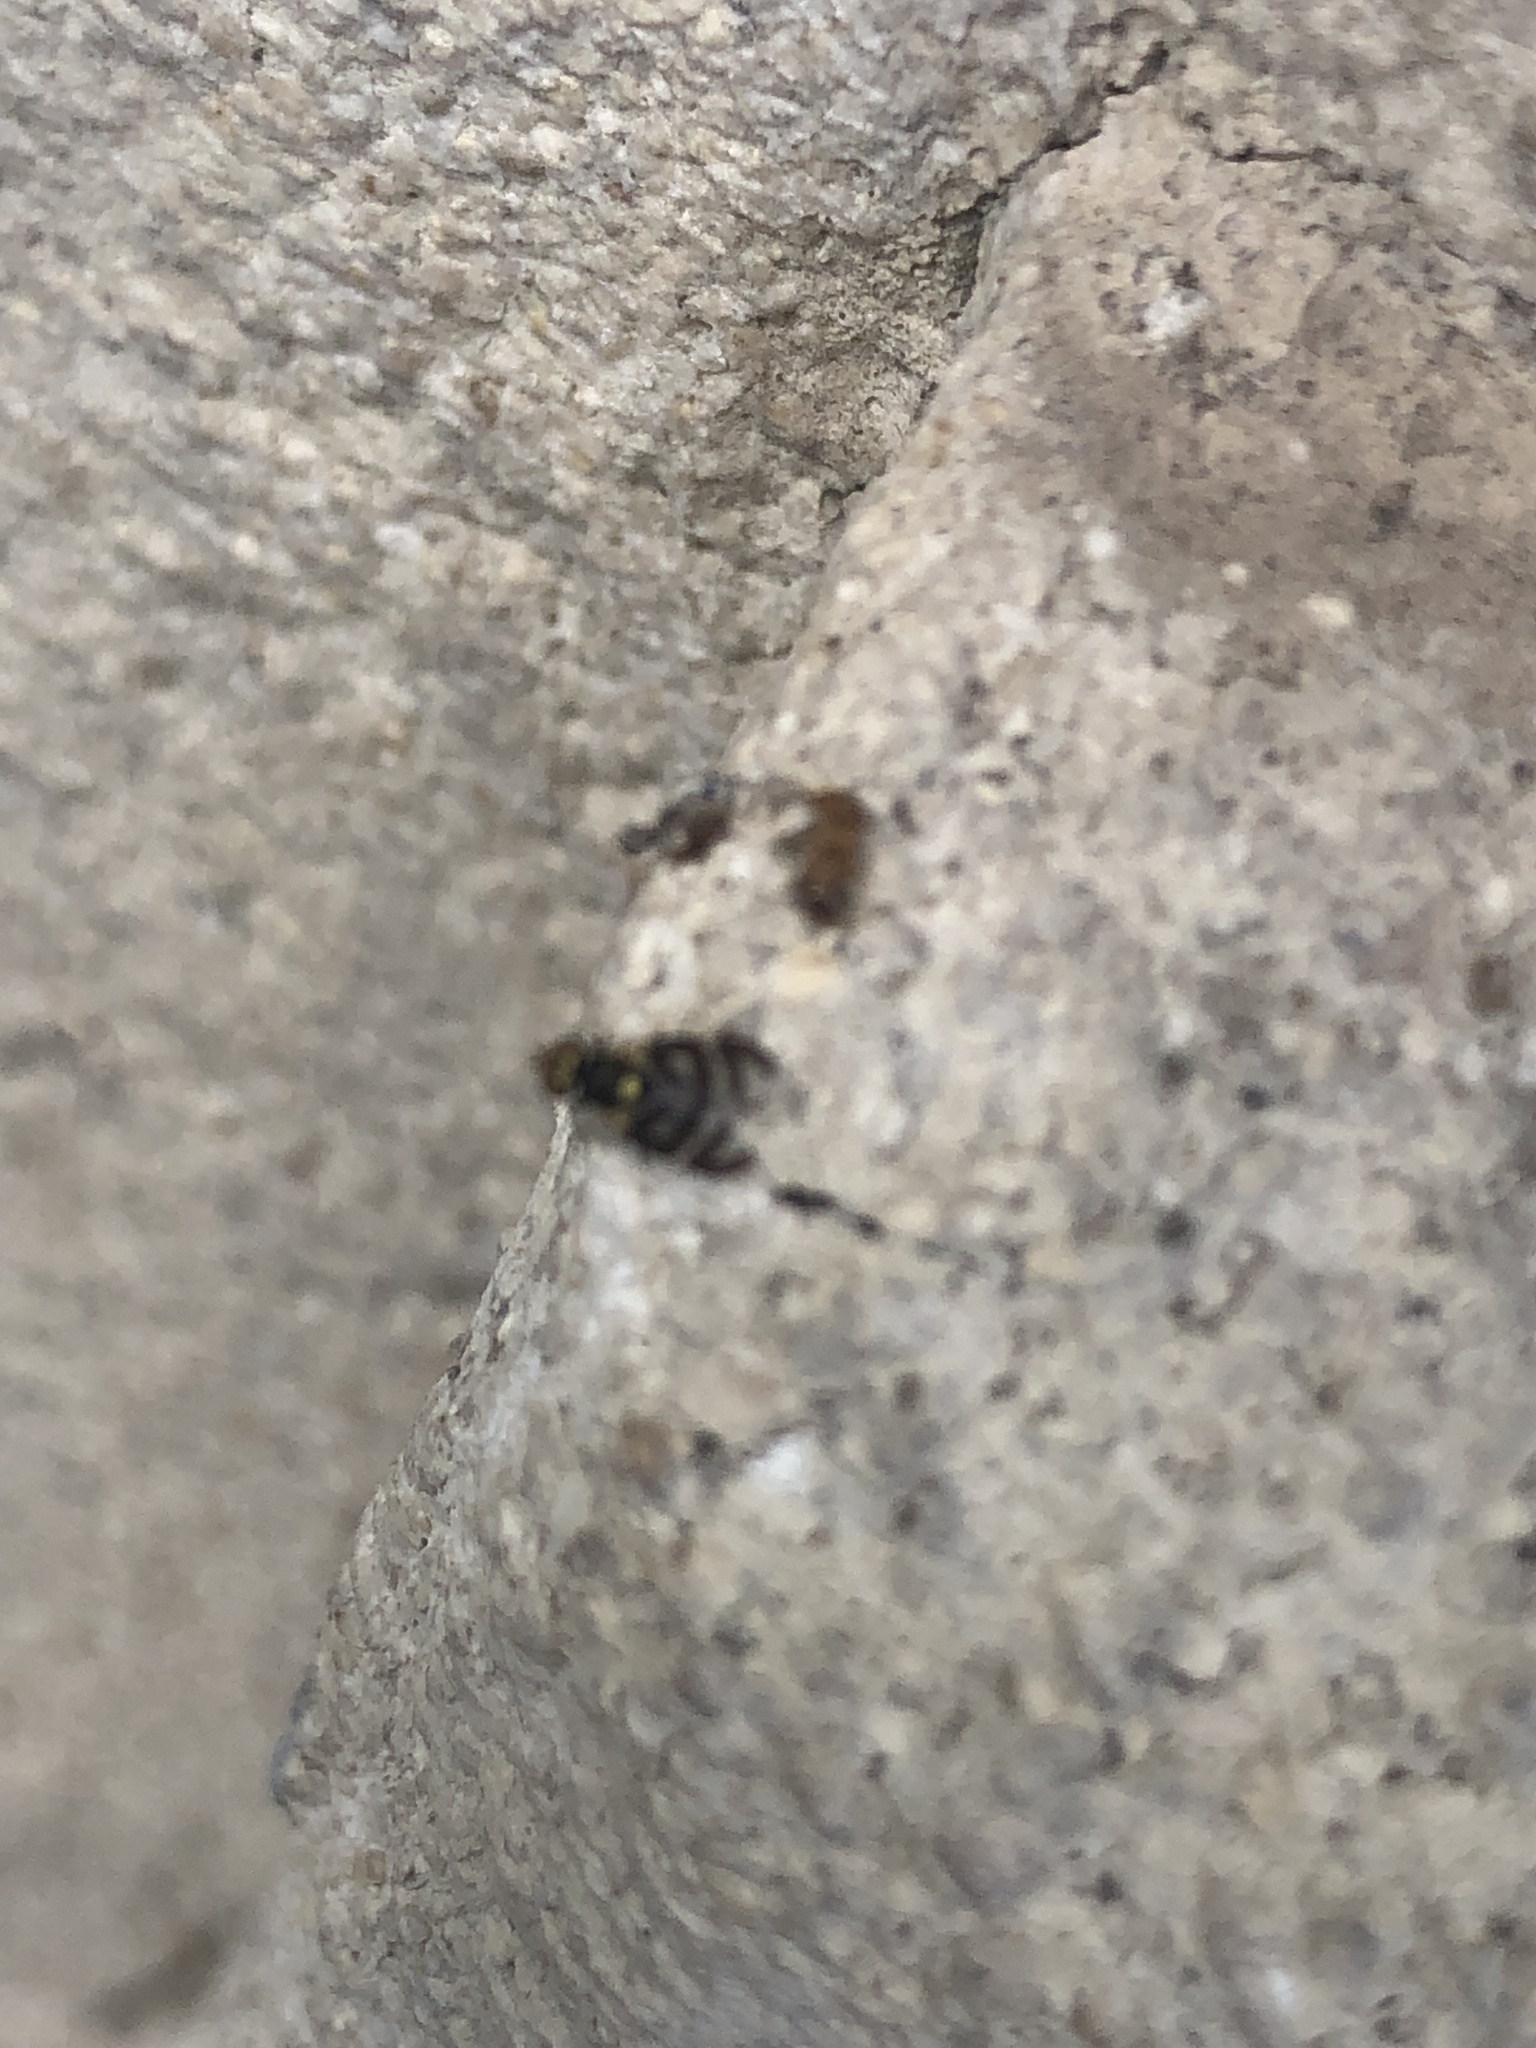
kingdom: Animalia
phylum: Arthropoda
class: Insecta
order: Diptera
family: Tephritidae
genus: Urophora
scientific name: Urophora quadrifasciata
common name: Knapweed seedhead fly
